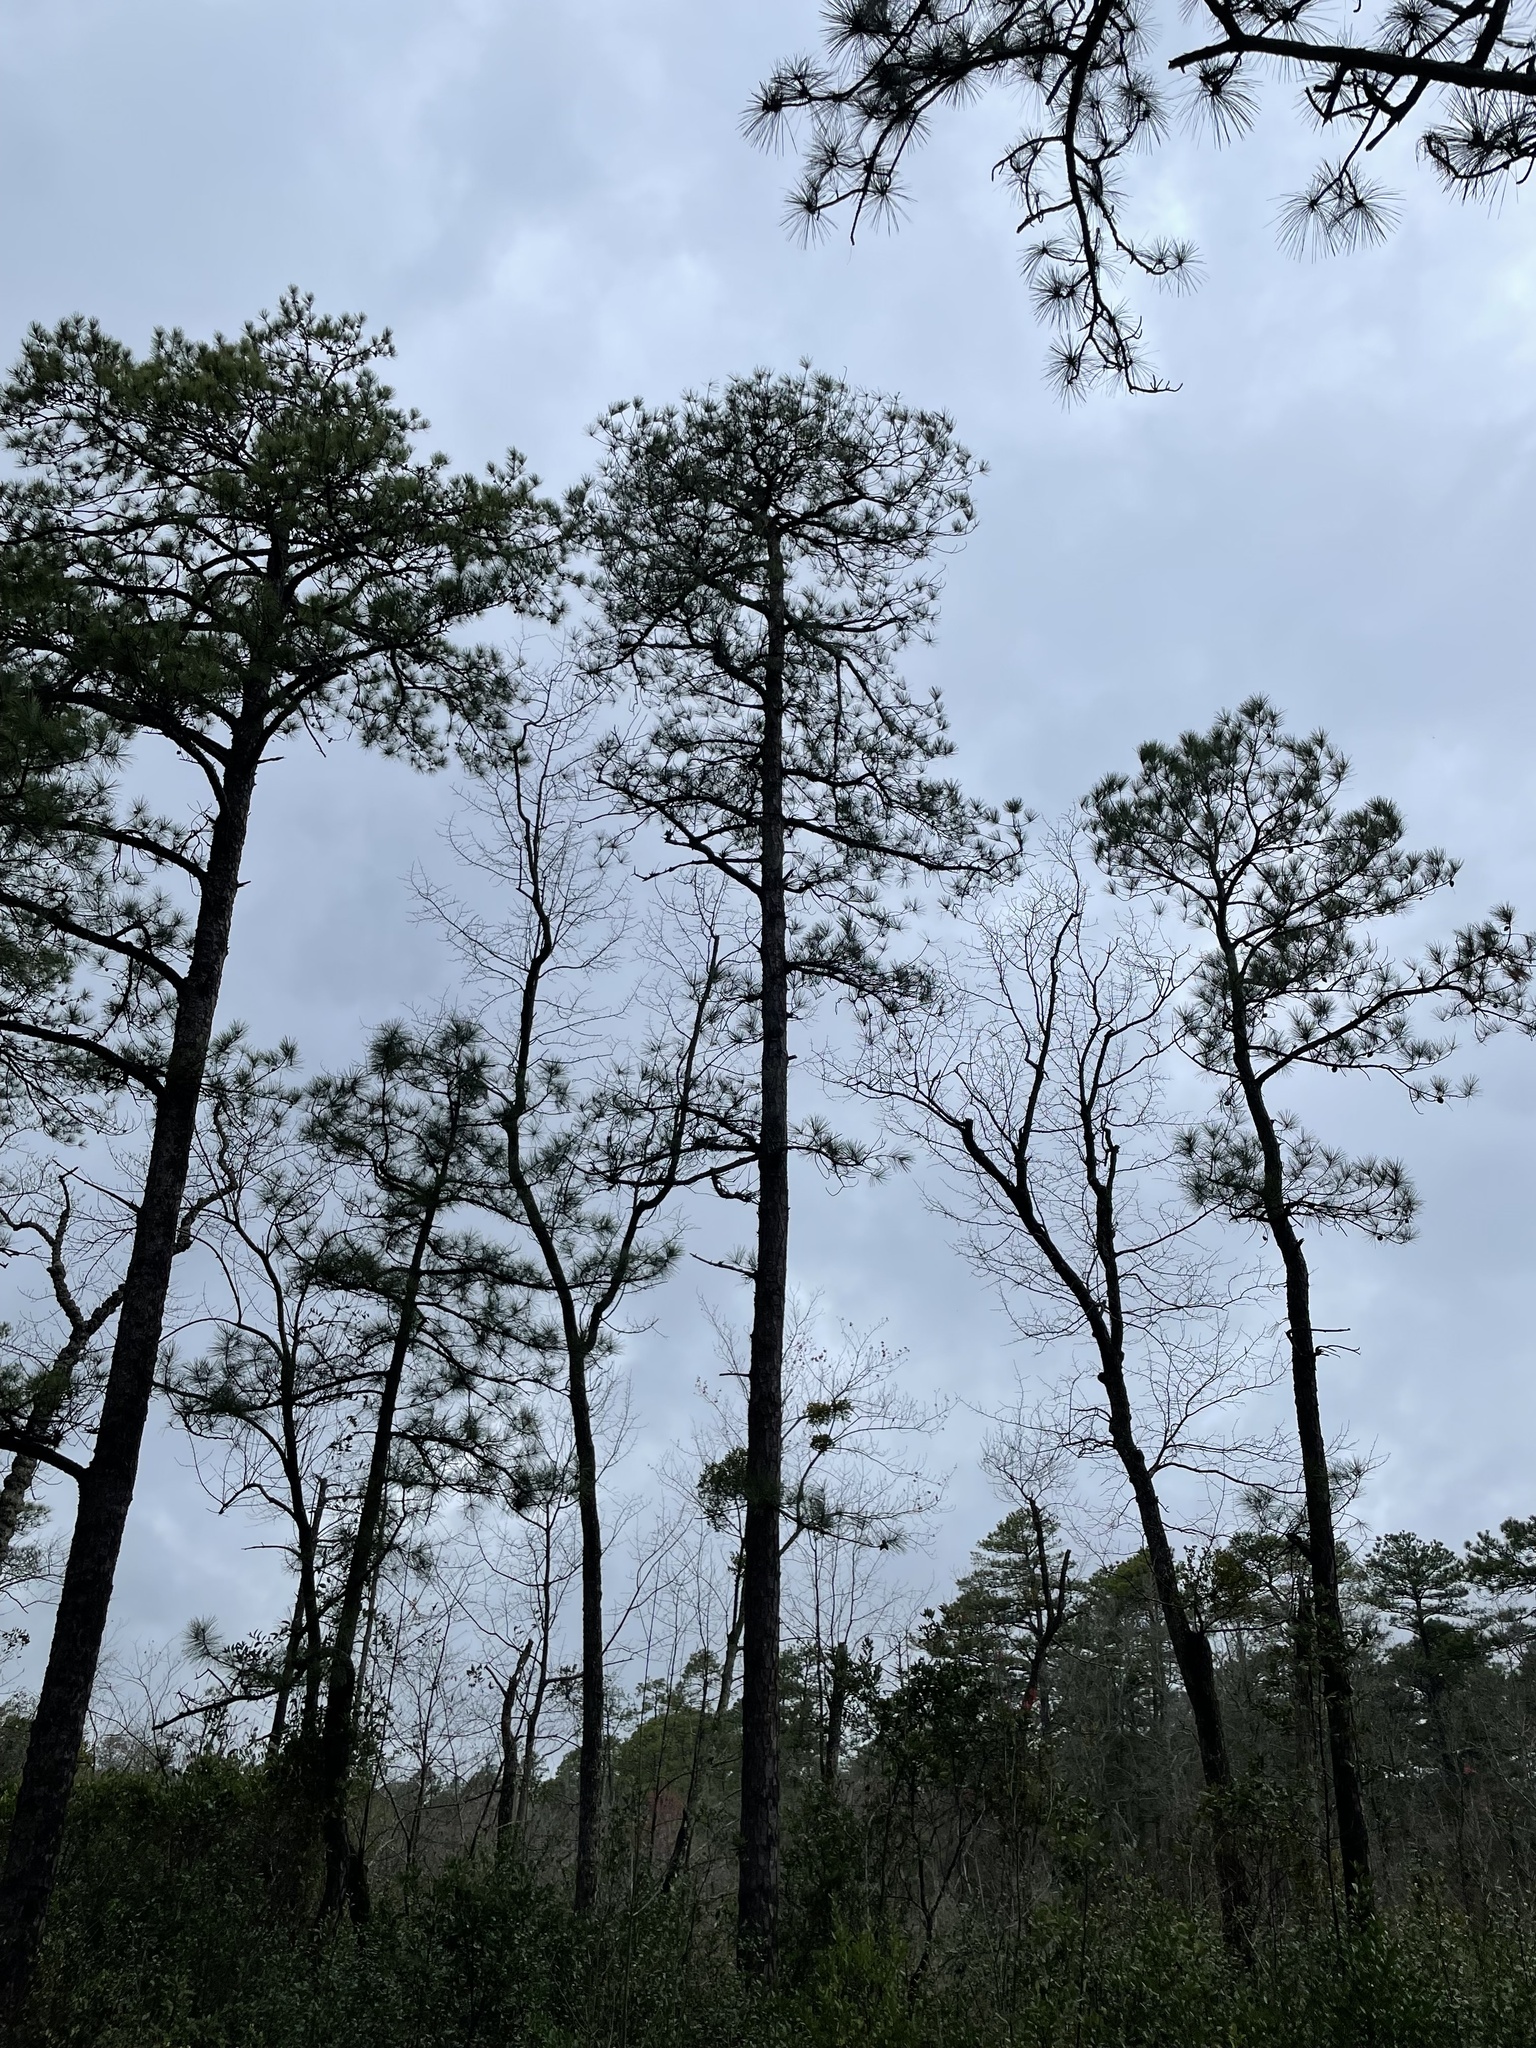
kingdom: Plantae
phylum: Tracheophyta
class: Pinopsida
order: Pinales
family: Pinaceae
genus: Pinus
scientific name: Pinus serotina
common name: Marsh pine
